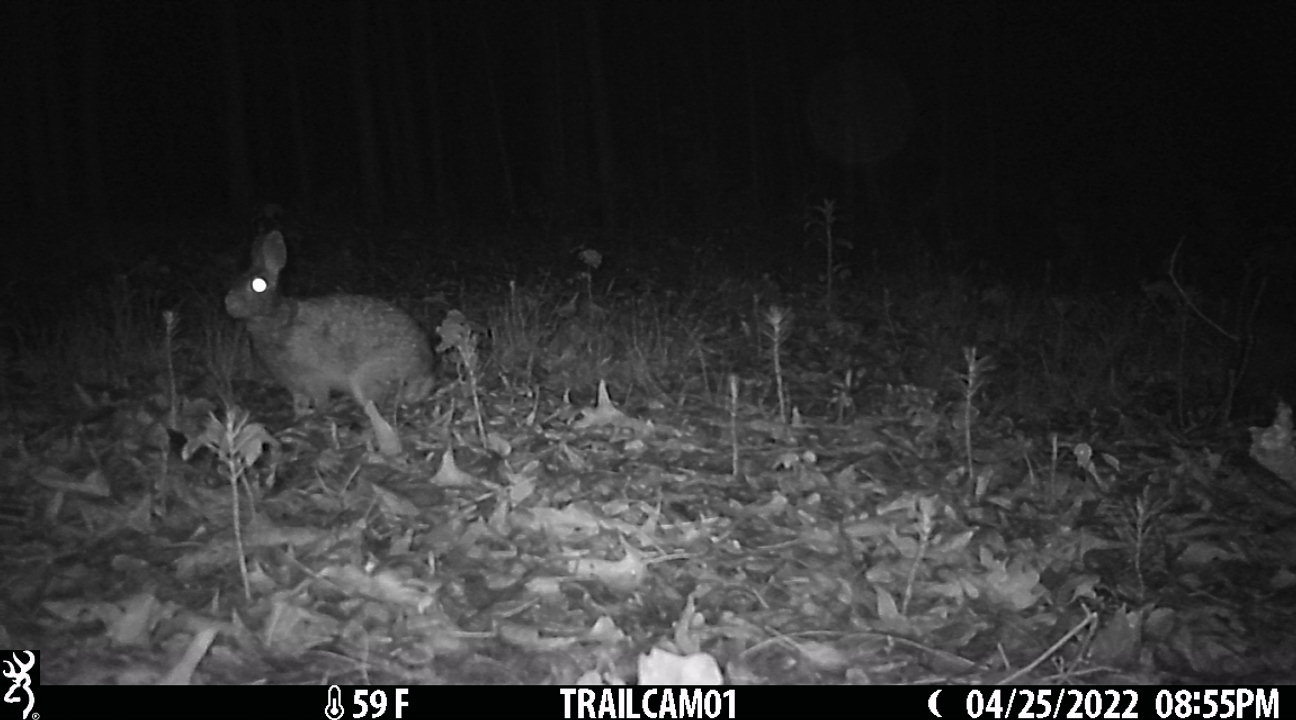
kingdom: Animalia
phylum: Chordata
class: Mammalia
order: Lagomorpha
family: Leporidae
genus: Sylvilagus
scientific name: Sylvilagus floridanus
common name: Eastern cottontail
